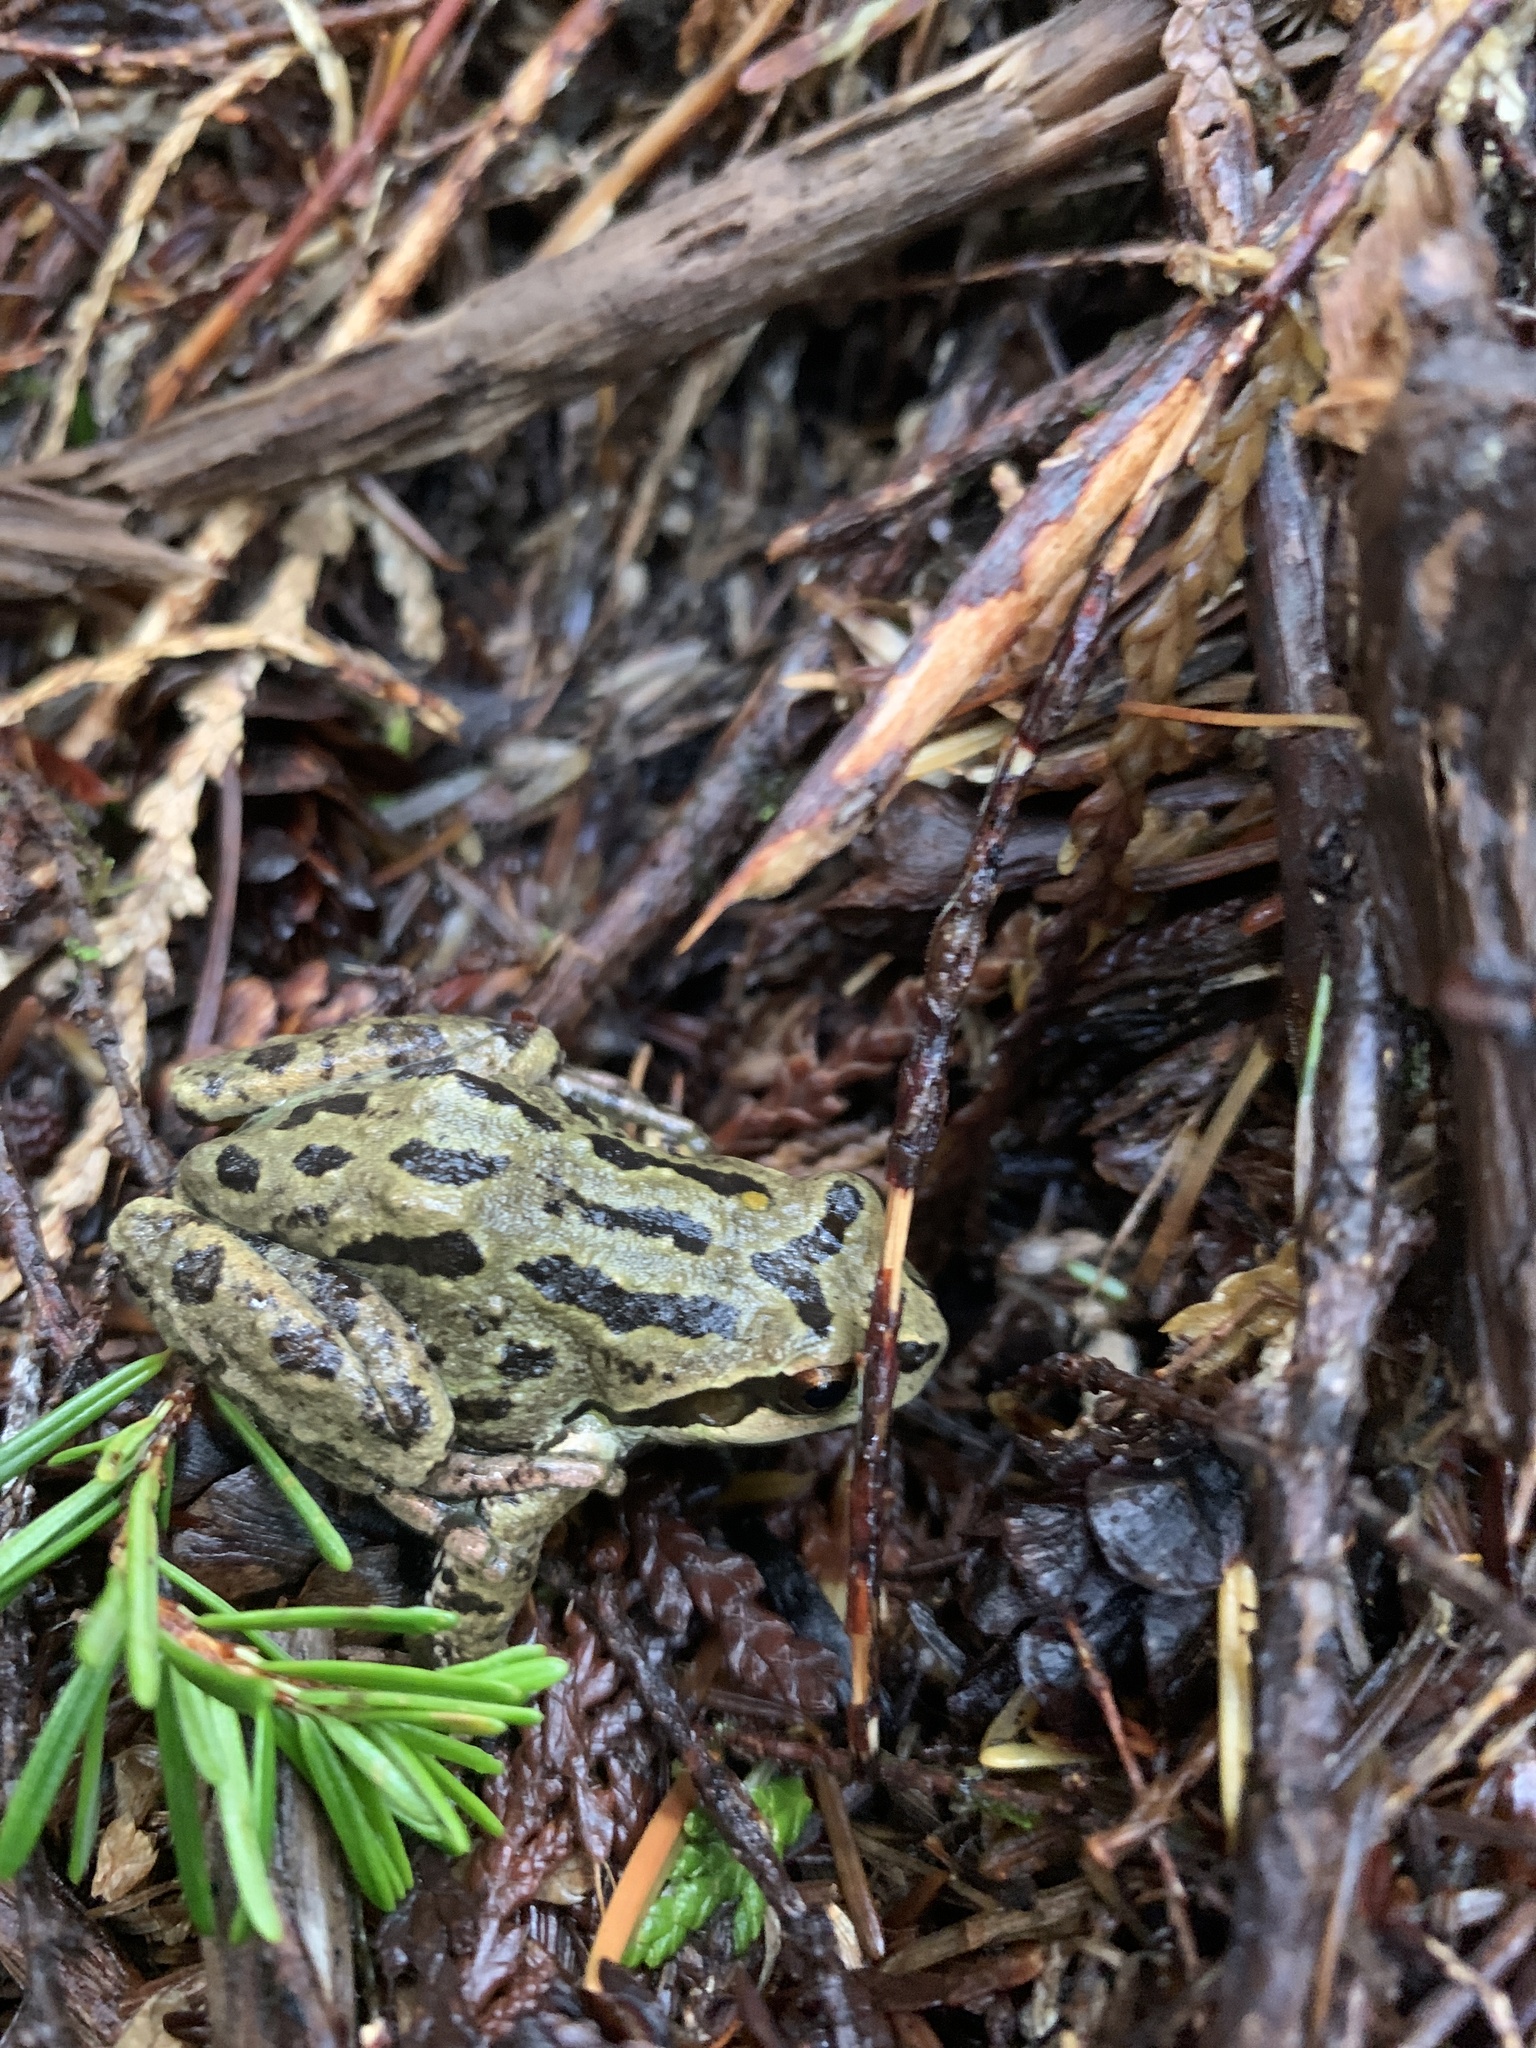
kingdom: Animalia
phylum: Chordata
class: Amphibia
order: Anura
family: Hylidae
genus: Pseudacris
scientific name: Pseudacris regilla
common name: Pacific chorus frog
